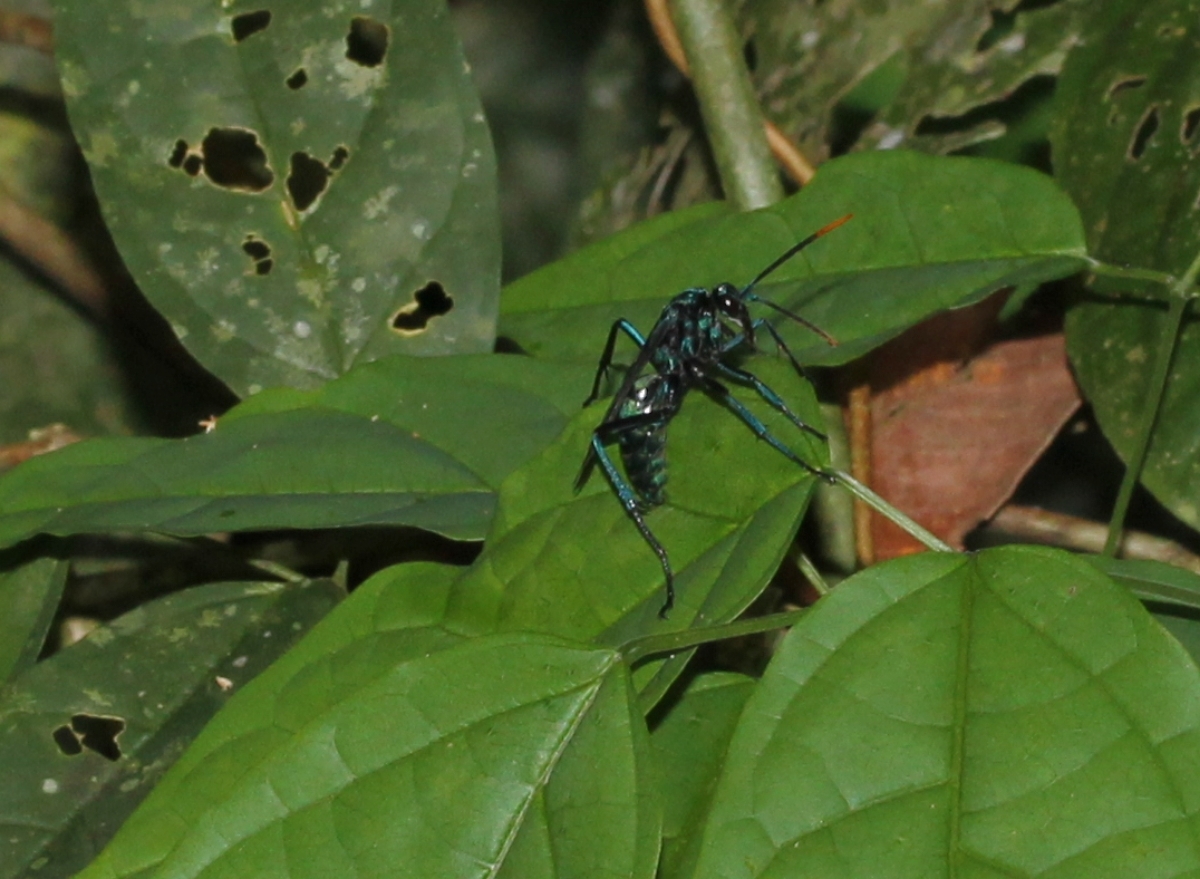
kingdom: Animalia
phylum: Arthropoda
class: Insecta
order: Hymenoptera
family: Pompilidae
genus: Pepsis
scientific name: Pepsis
